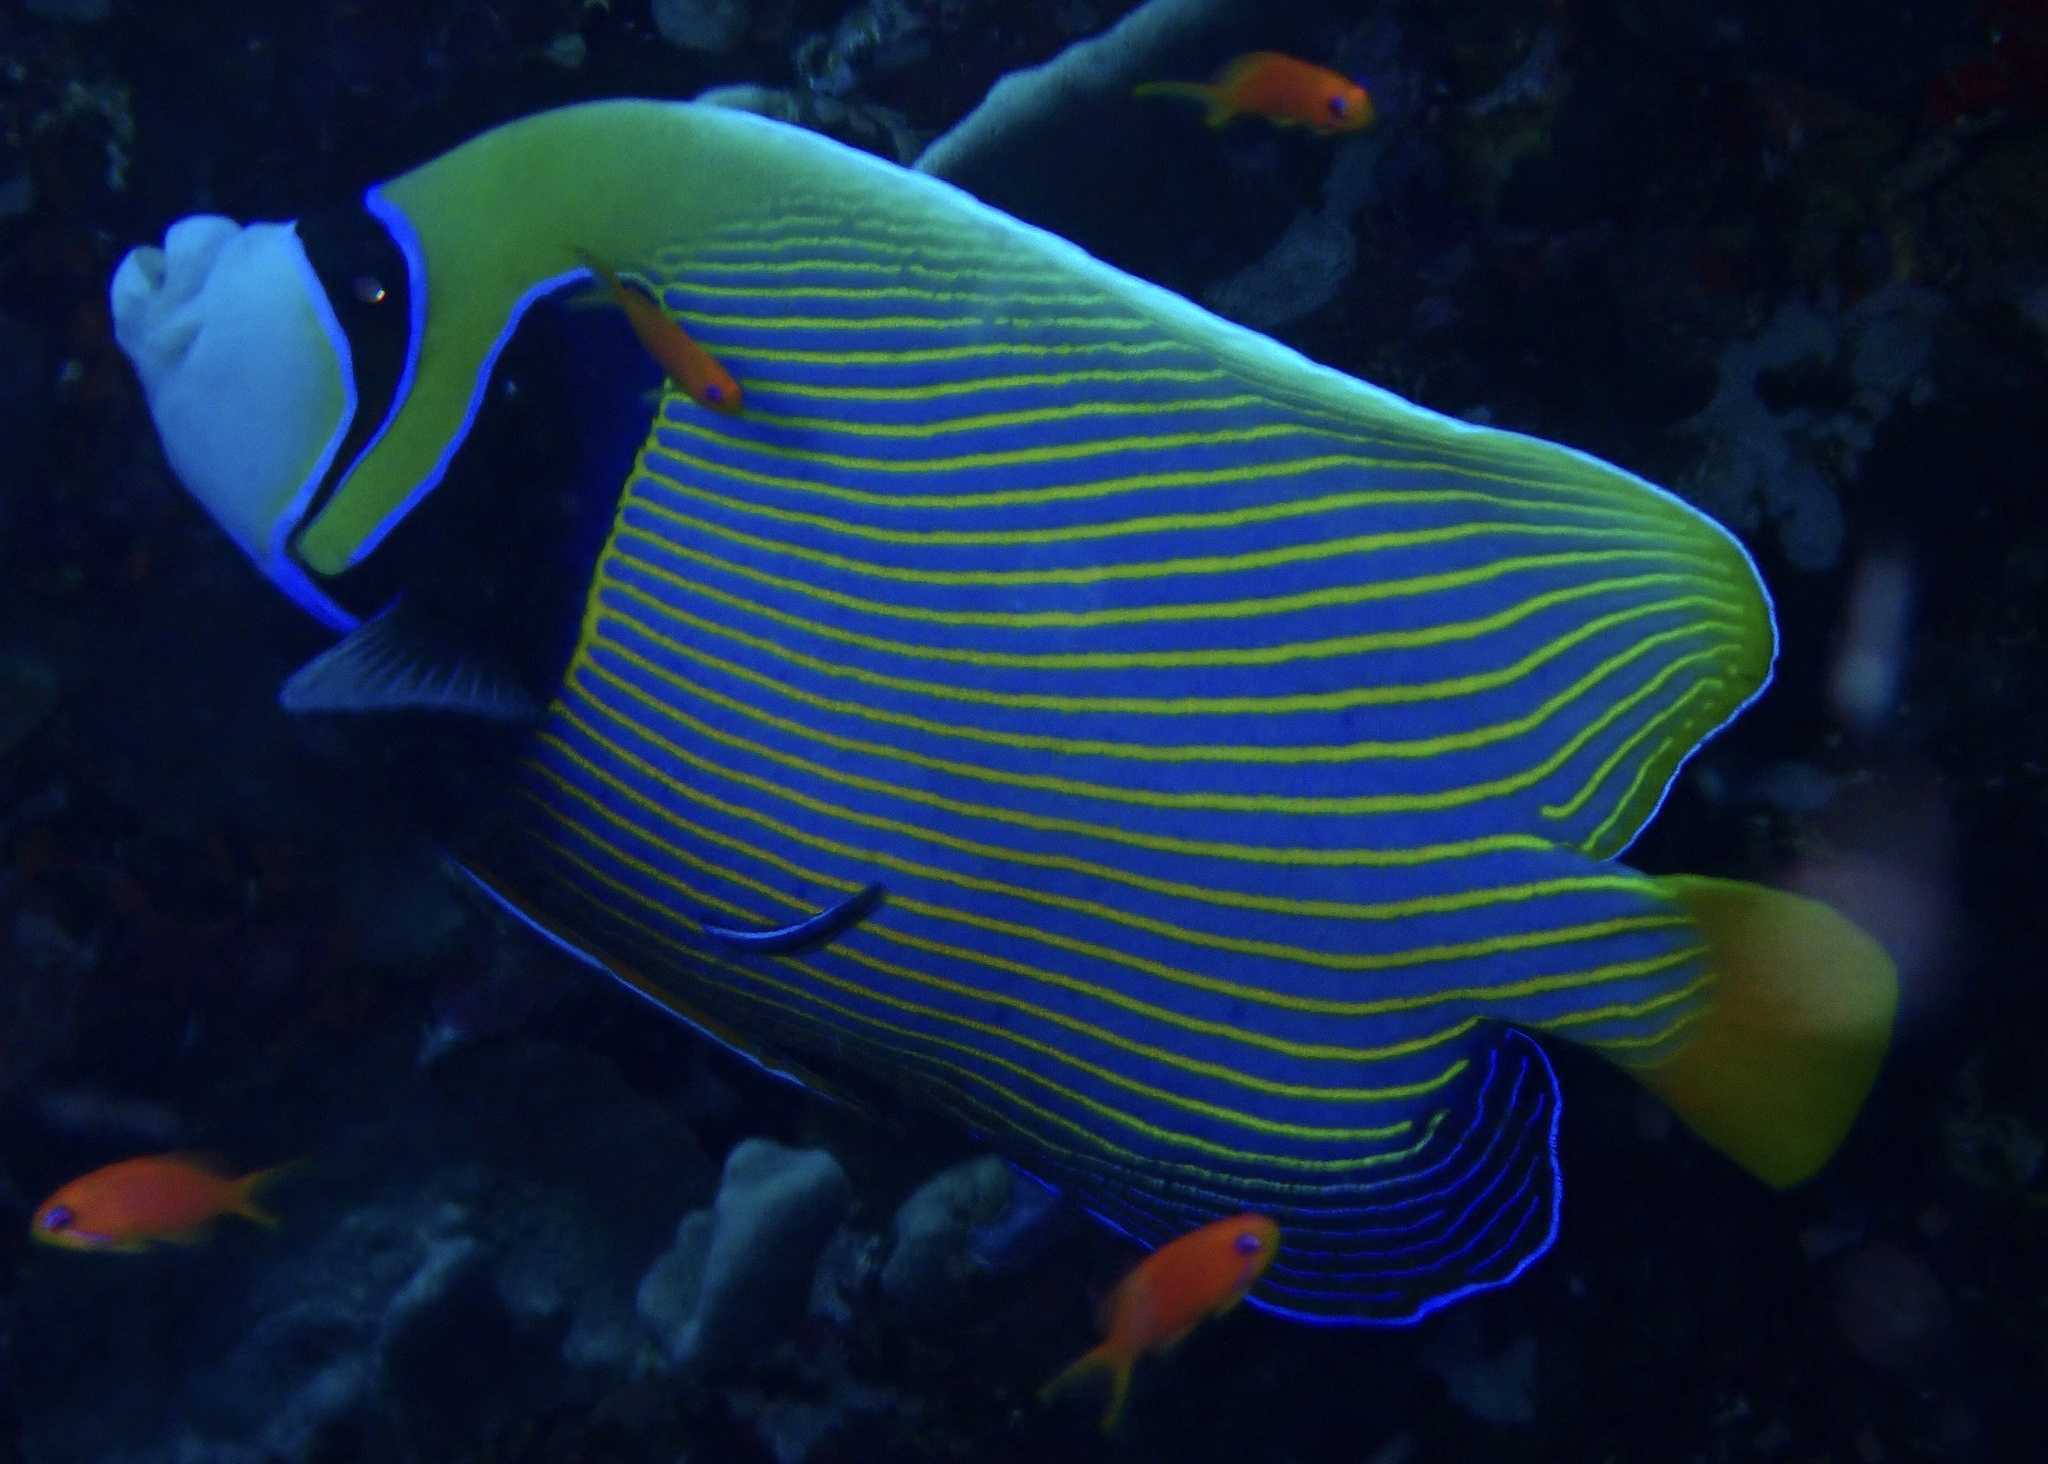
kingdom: Animalia
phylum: Chordata
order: Perciformes
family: Pomacanthidae
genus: Pomacanthus
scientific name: Pomacanthus imperator
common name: Emperor angelfish
